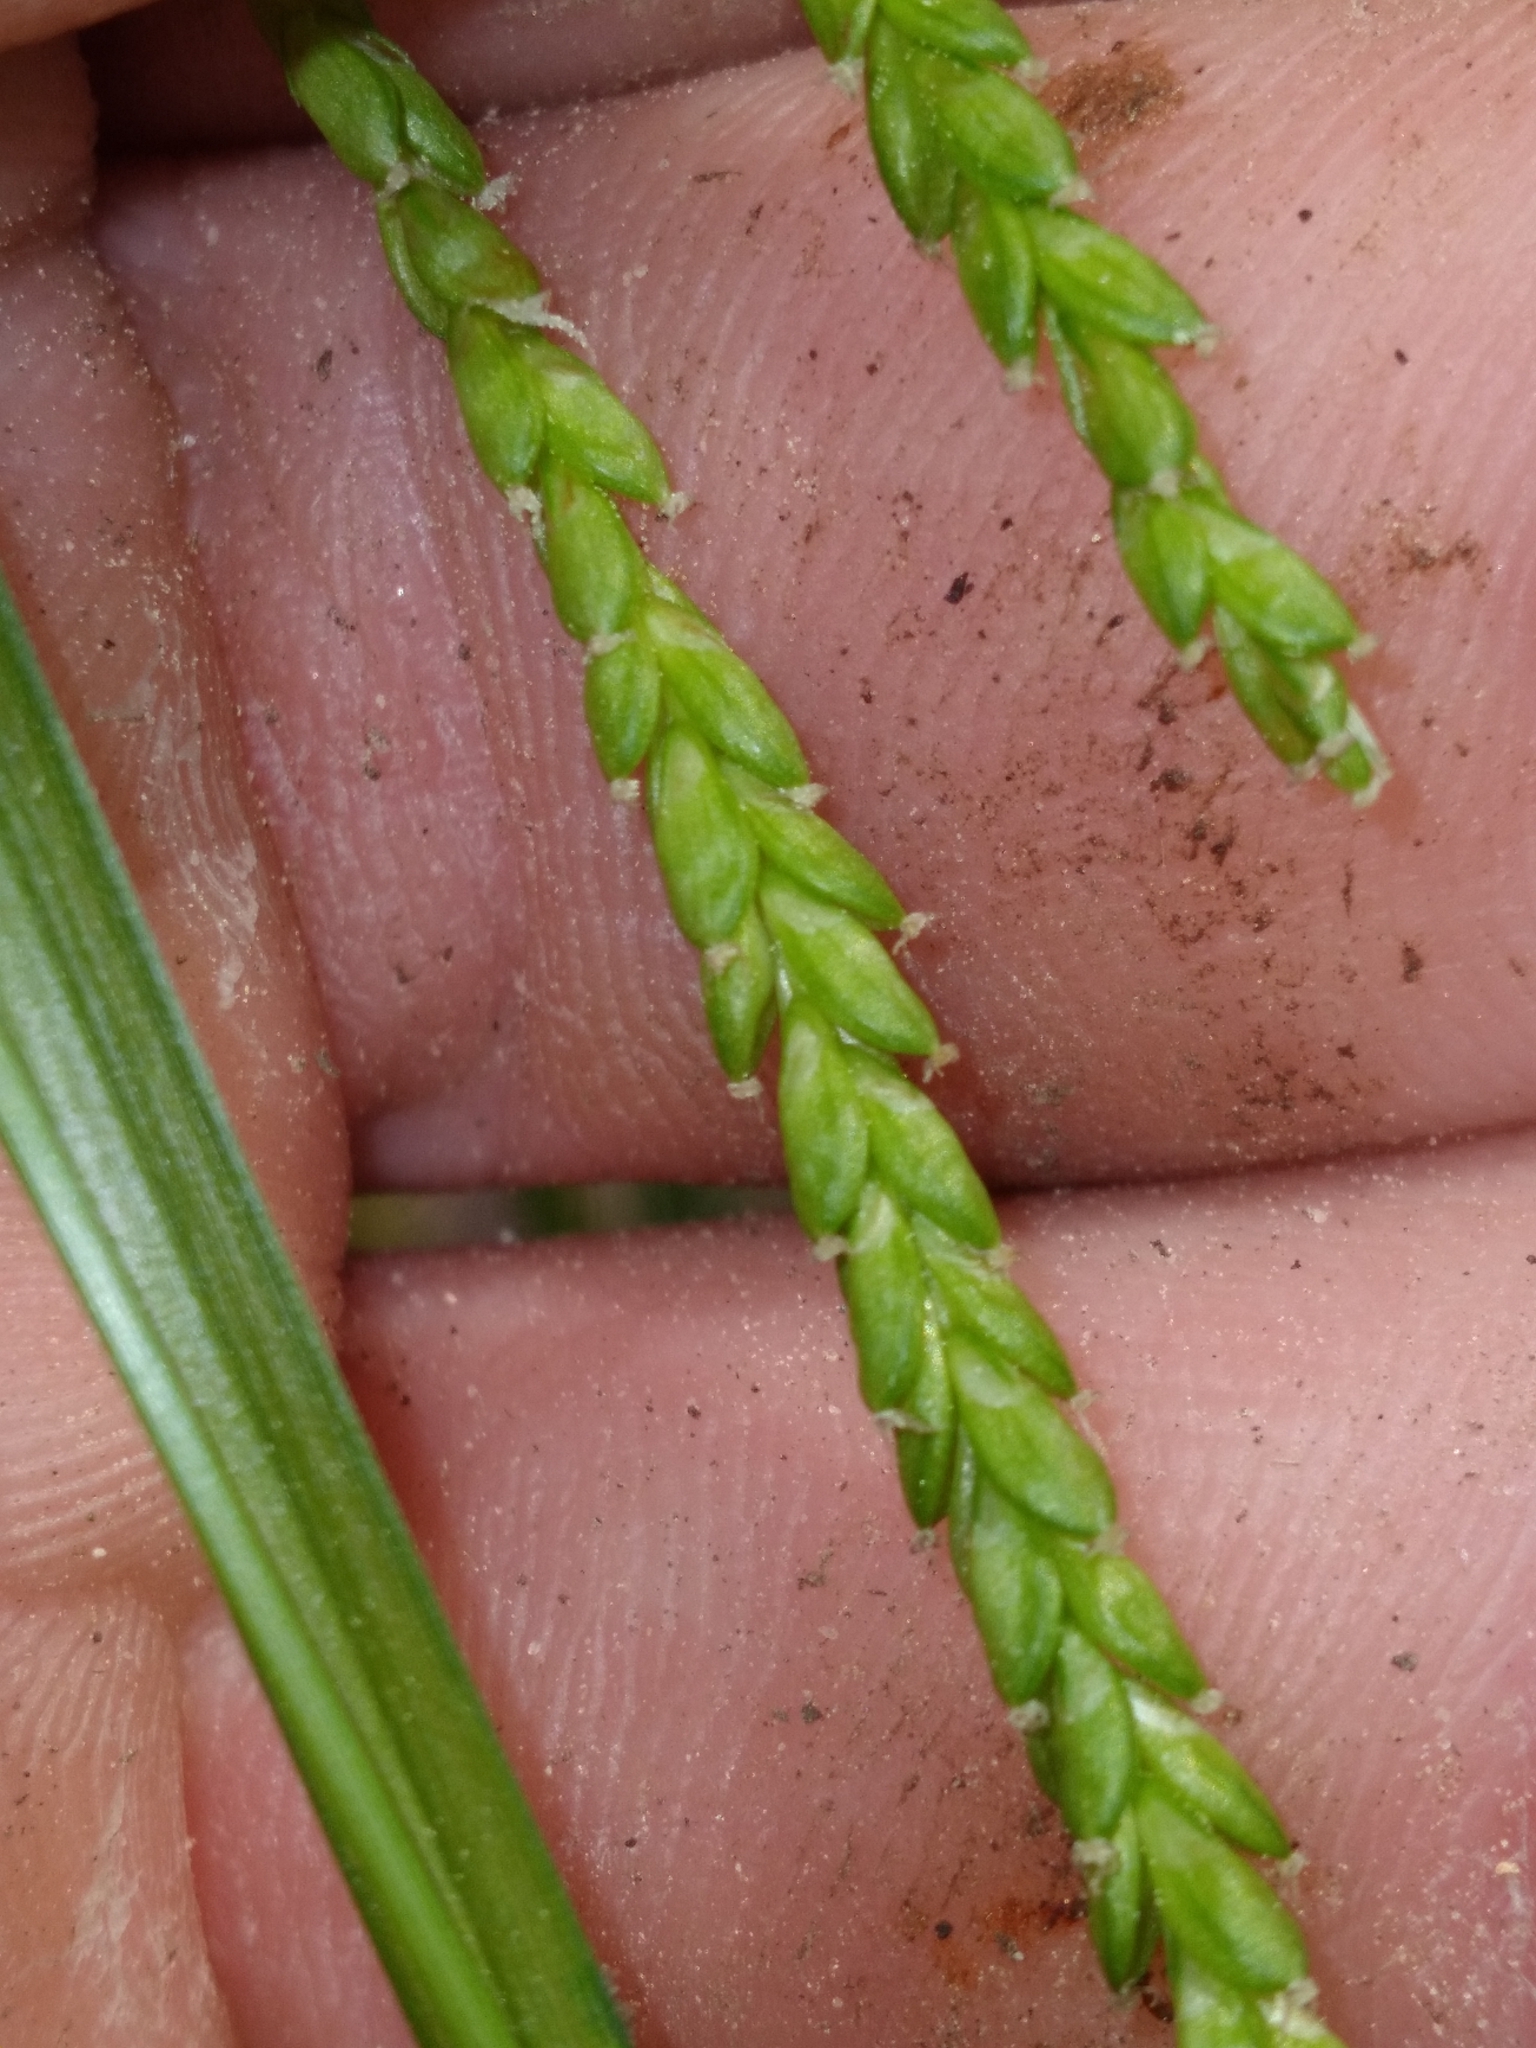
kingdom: Plantae
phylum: Tracheophyta
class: Liliopsida
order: Poales
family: Cyperaceae
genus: Carex
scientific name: Carex gracillima
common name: Graceful sedge
